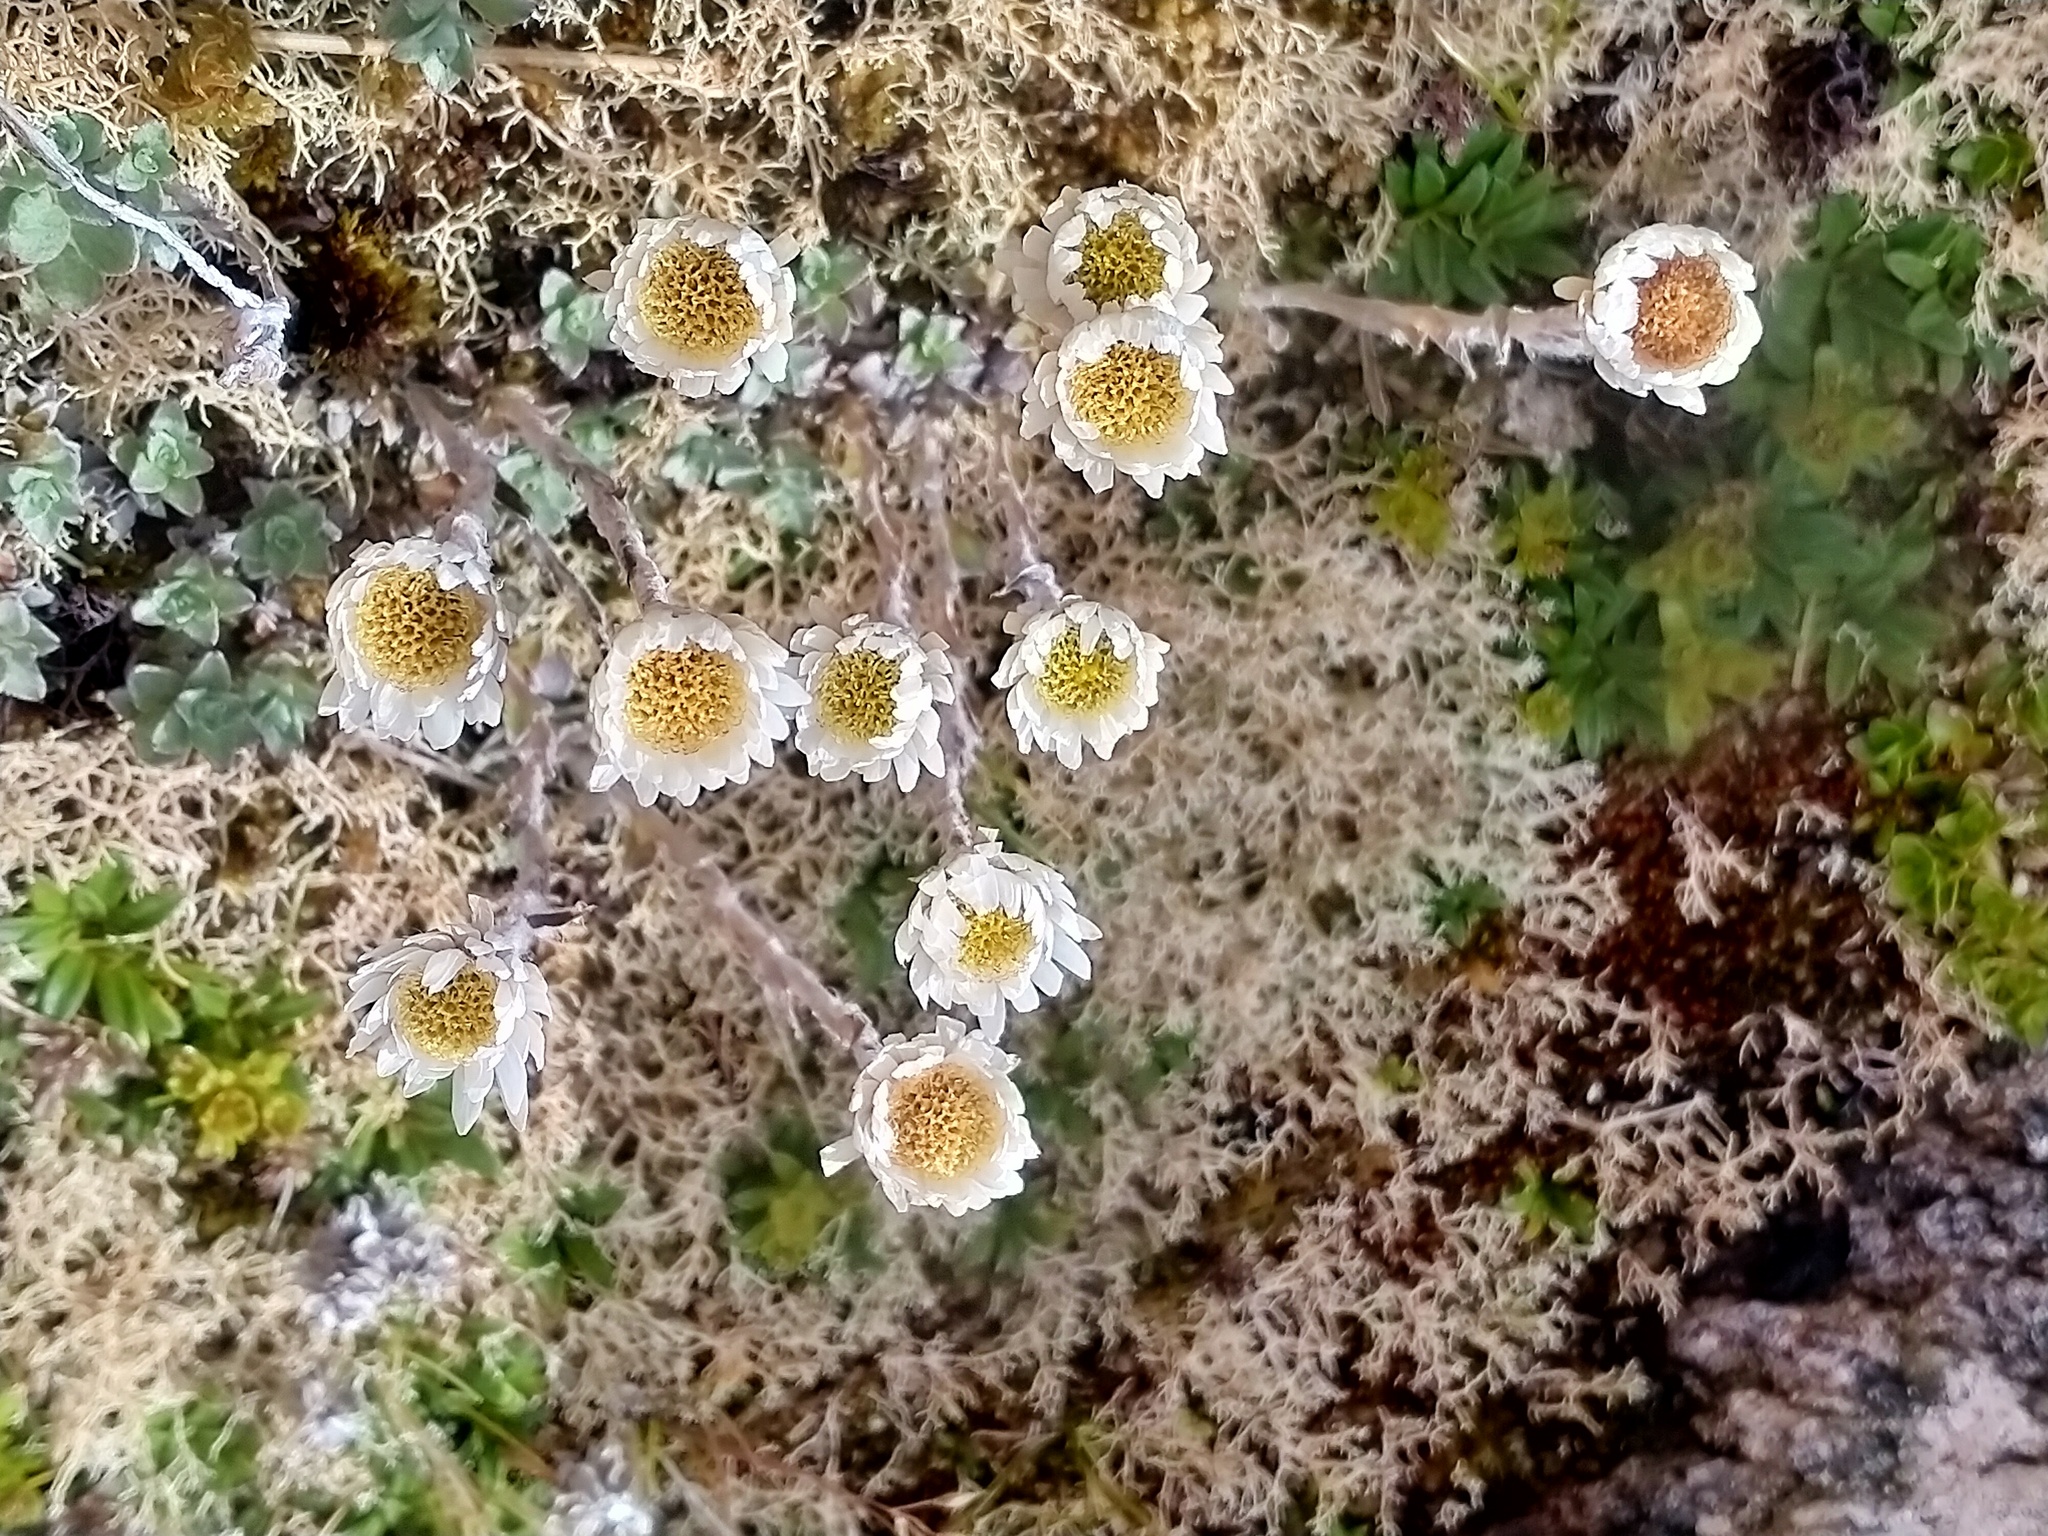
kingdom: Plantae
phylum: Tracheophyta
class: Magnoliopsida
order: Asterales
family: Asteraceae
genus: Anaphalioides
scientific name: Anaphalioides bellidioides
